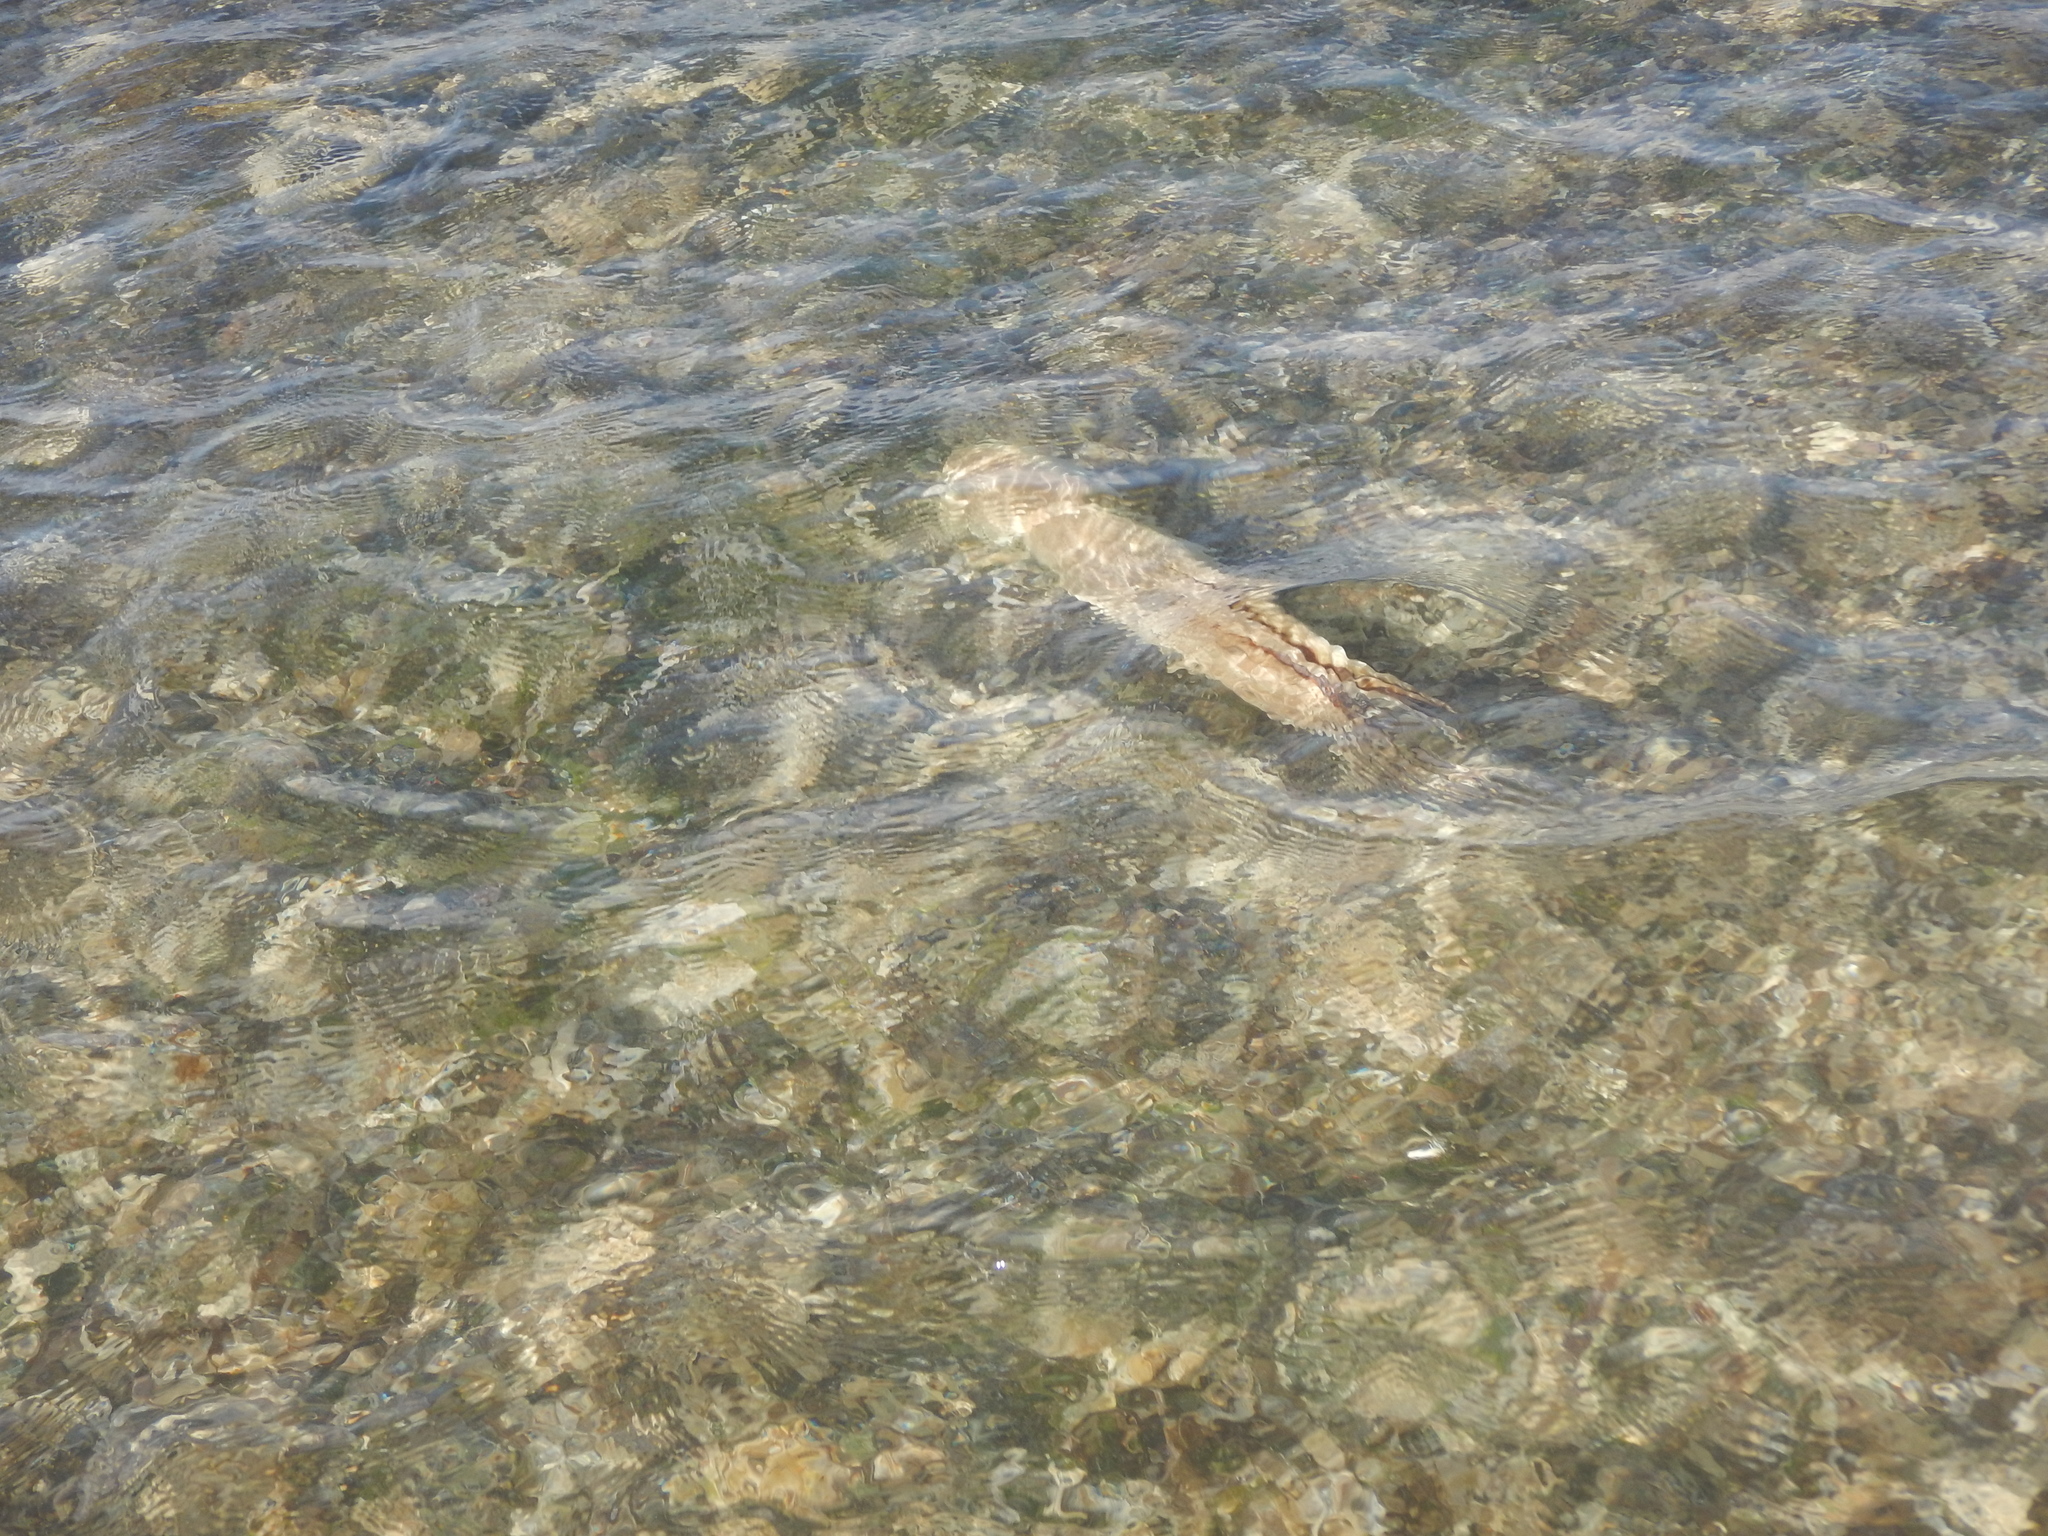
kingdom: Animalia
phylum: Mollusca
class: Cephalopoda
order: Octopoda
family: Octopodidae
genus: Octopus
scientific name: Octopus insularis
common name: Brazil reef octopus
